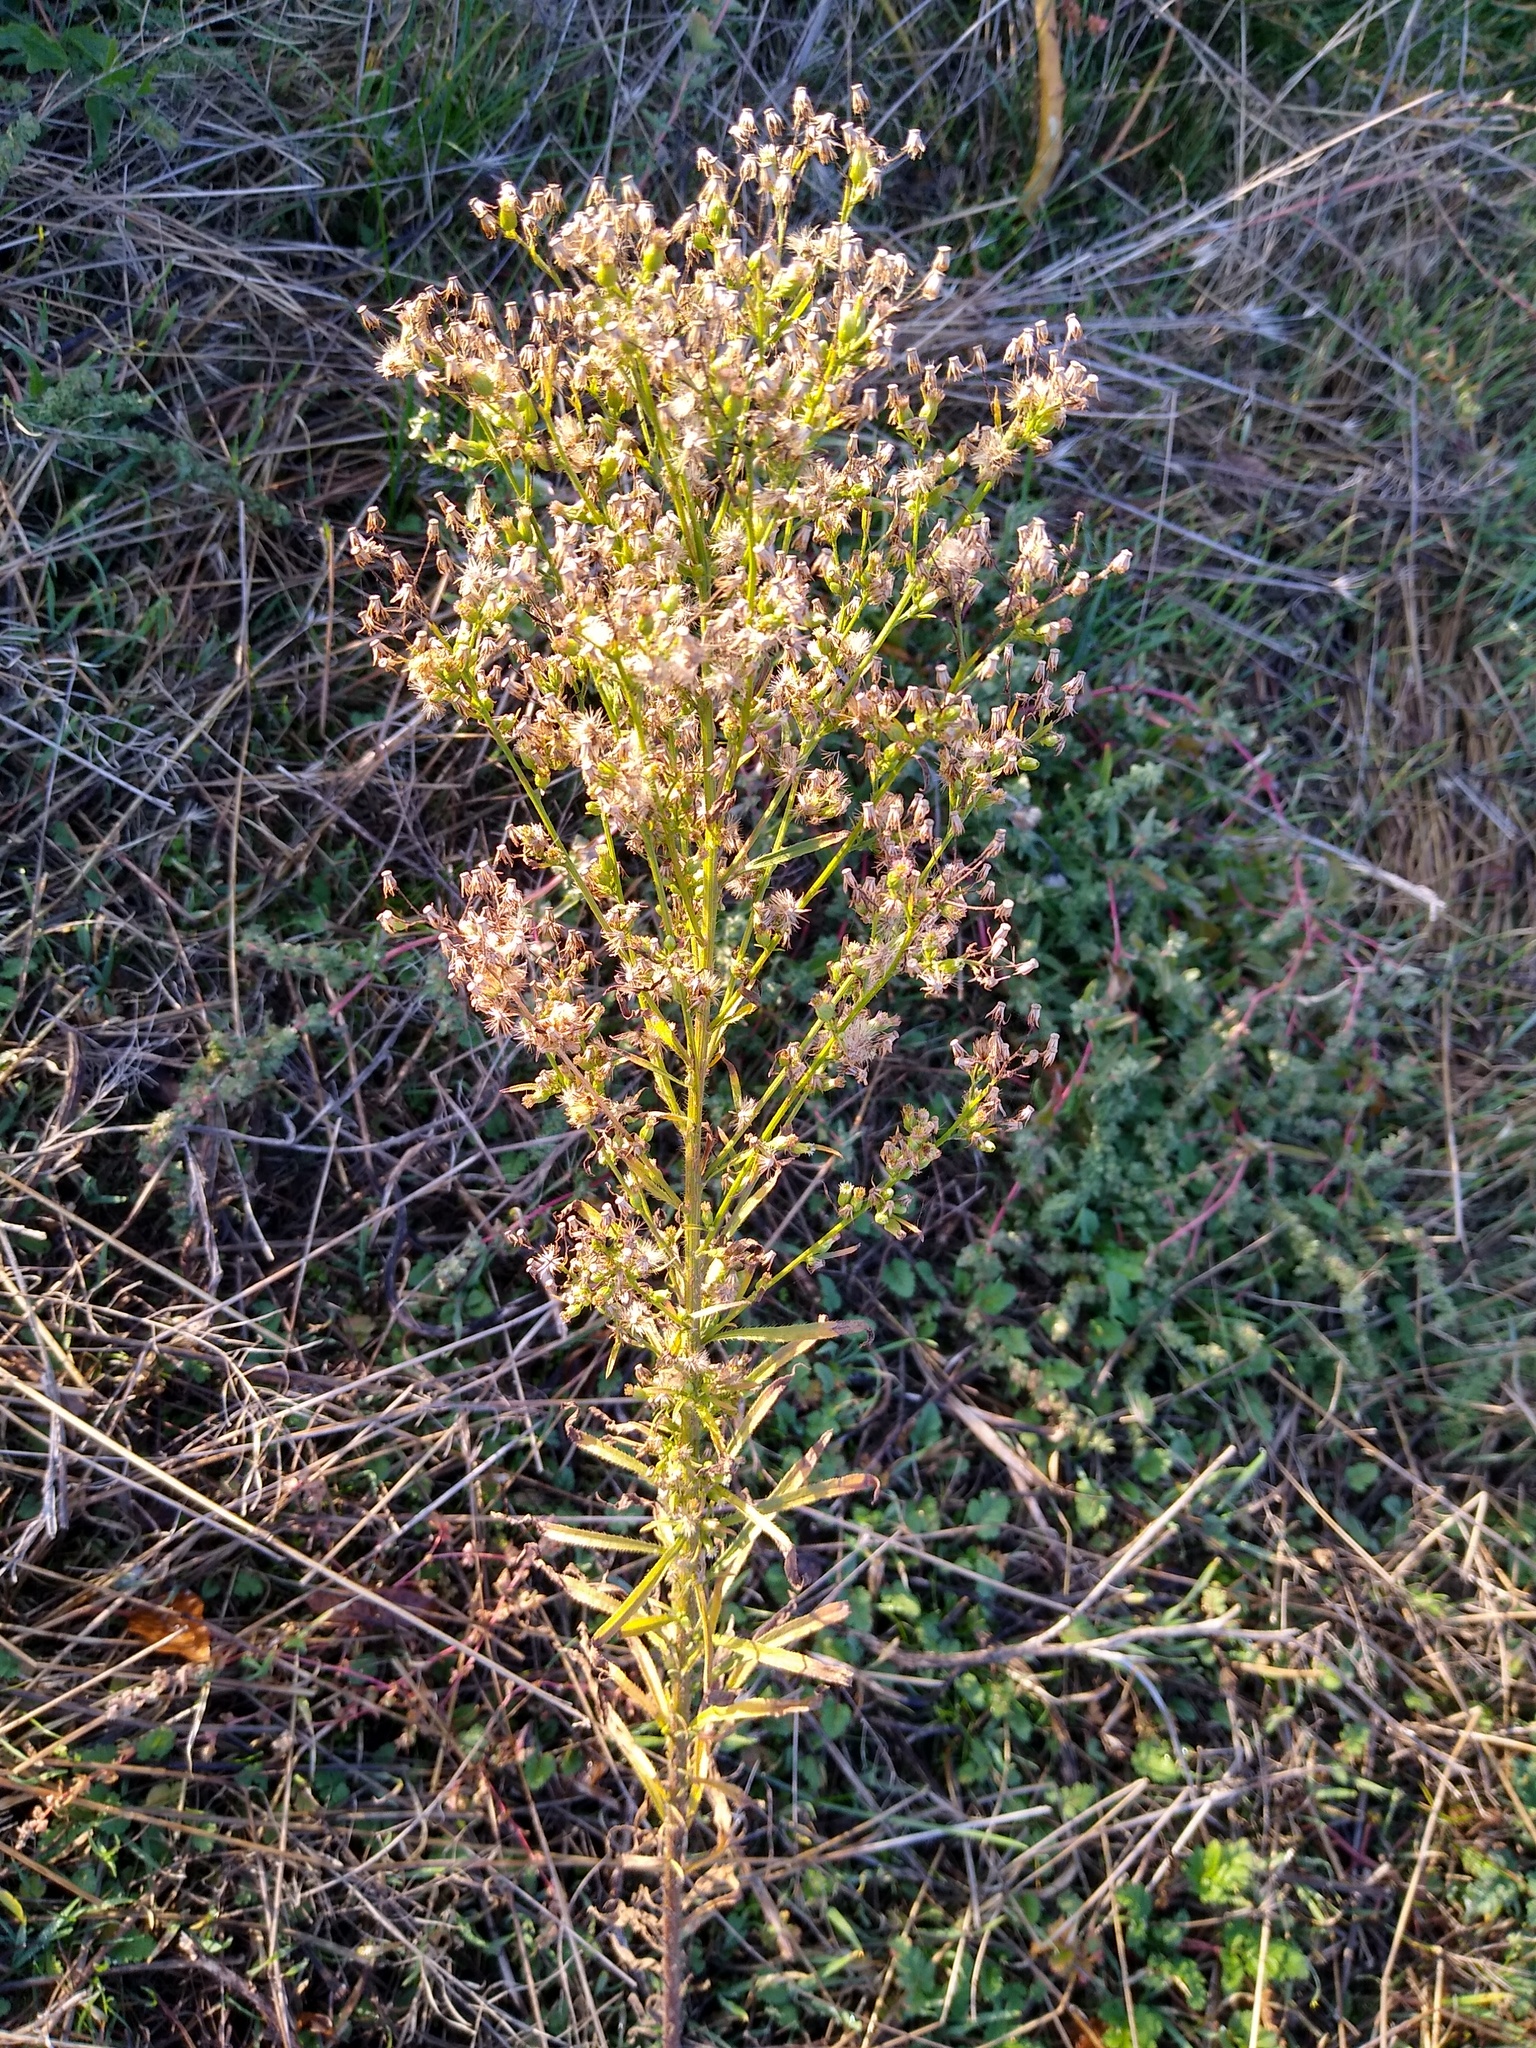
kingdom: Plantae
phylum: Tracheophyta
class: Magnoliopsida
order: Asterales
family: Asteraceae
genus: Erigeron
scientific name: Erigeron canadensis
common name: Canadian fleabane
